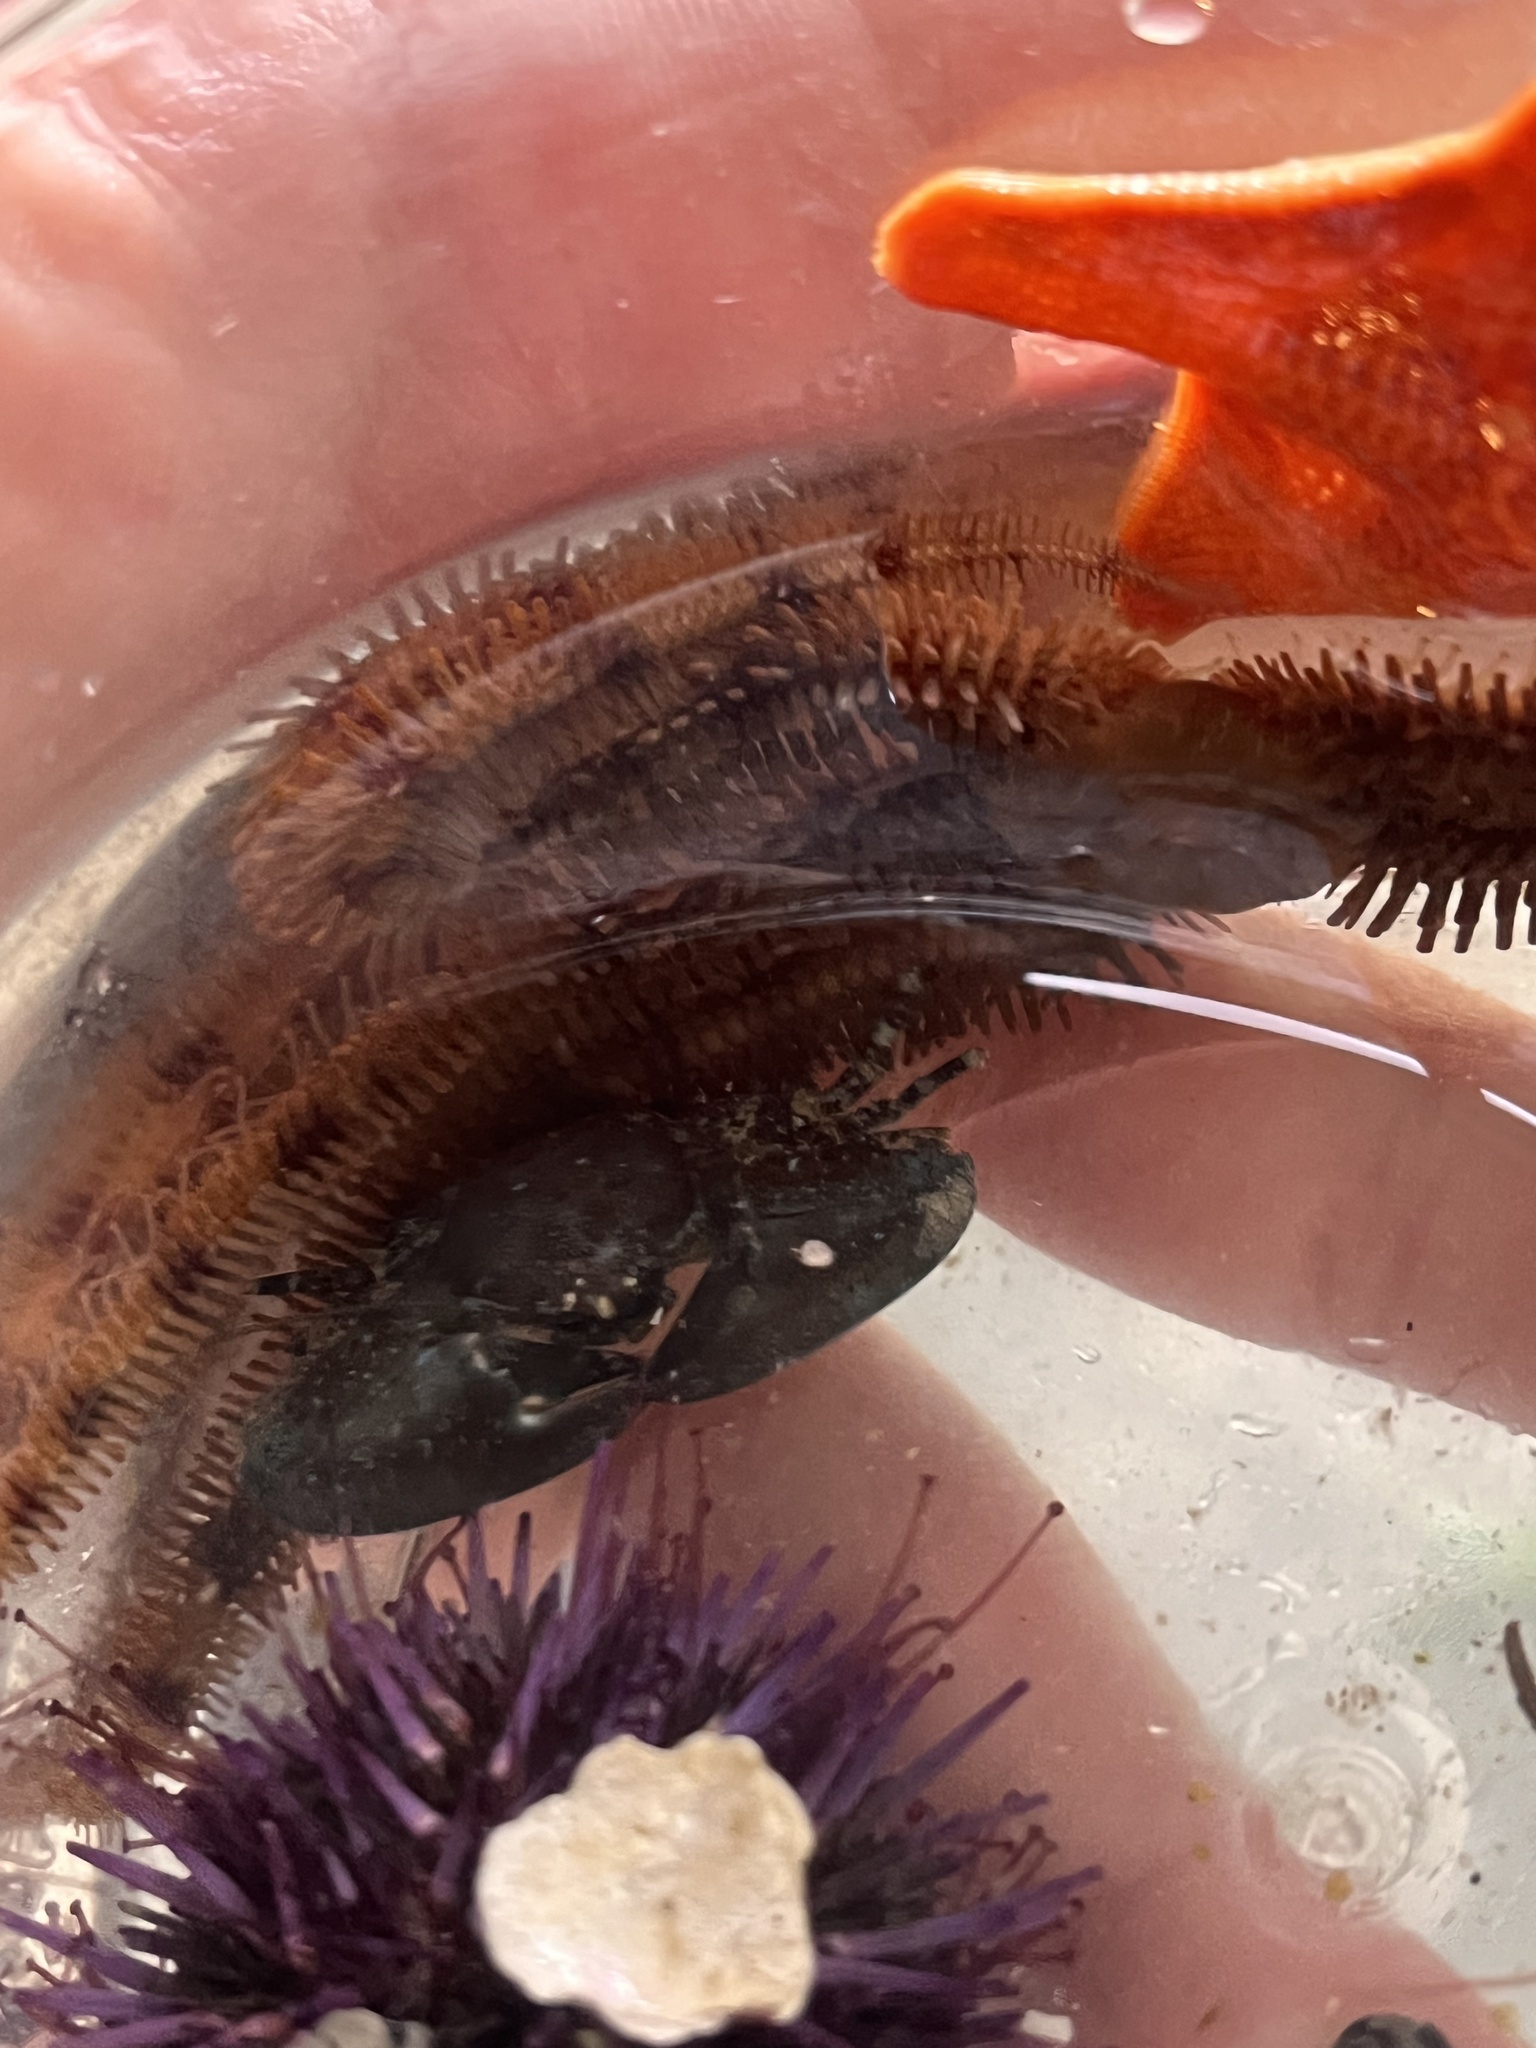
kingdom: Animalia
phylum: Echinodermata
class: Ophiuroidea
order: Ophiacanthida
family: Ophiopteridae
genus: Ophiopteris
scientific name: Ophiopteris papillosa
